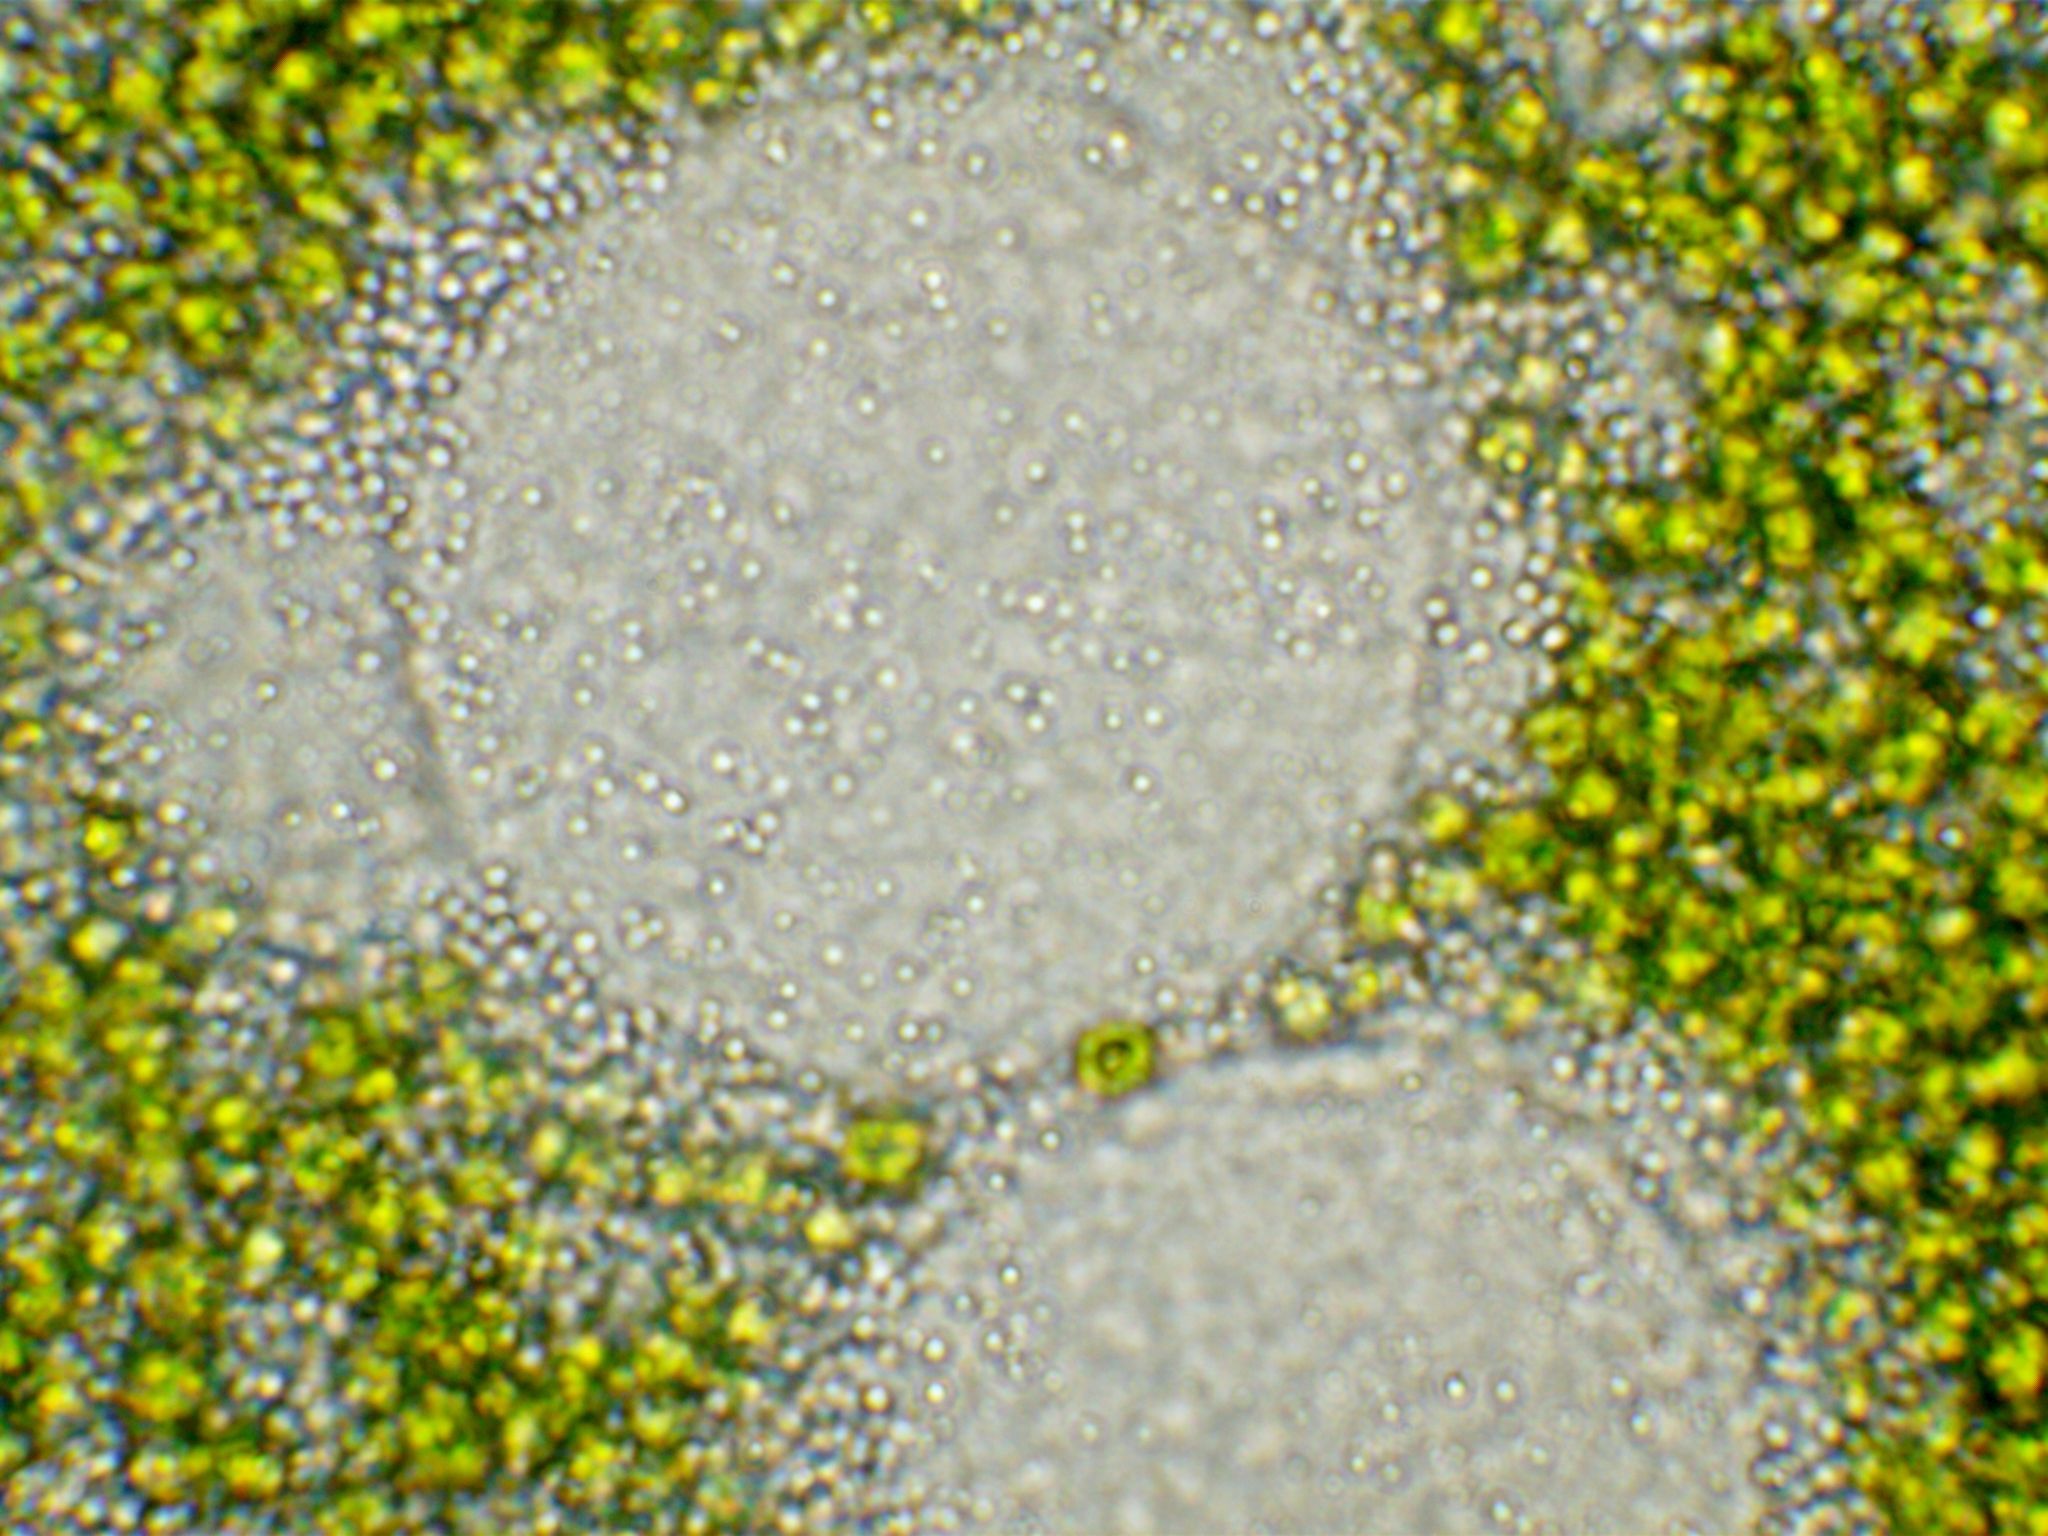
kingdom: Chromista
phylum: Ciliophora
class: Heterotrichea
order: Heterotrichida
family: Stentoridae
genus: Stentor
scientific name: Stentor pyriformis
